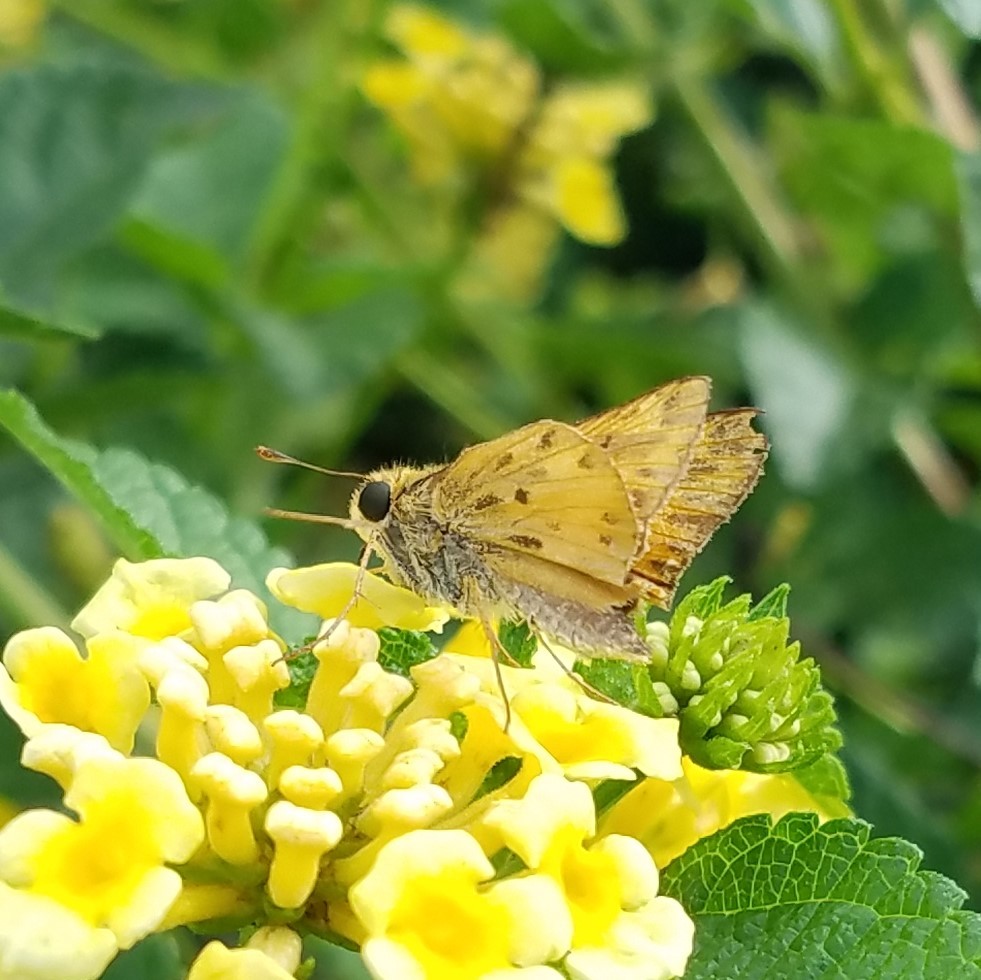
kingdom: Animalia
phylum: Arthropoda
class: Insecta
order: Lepidoptera
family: Hesperiidae
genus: Hylephila
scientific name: Hylephila phyleus
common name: Fiery skipper
